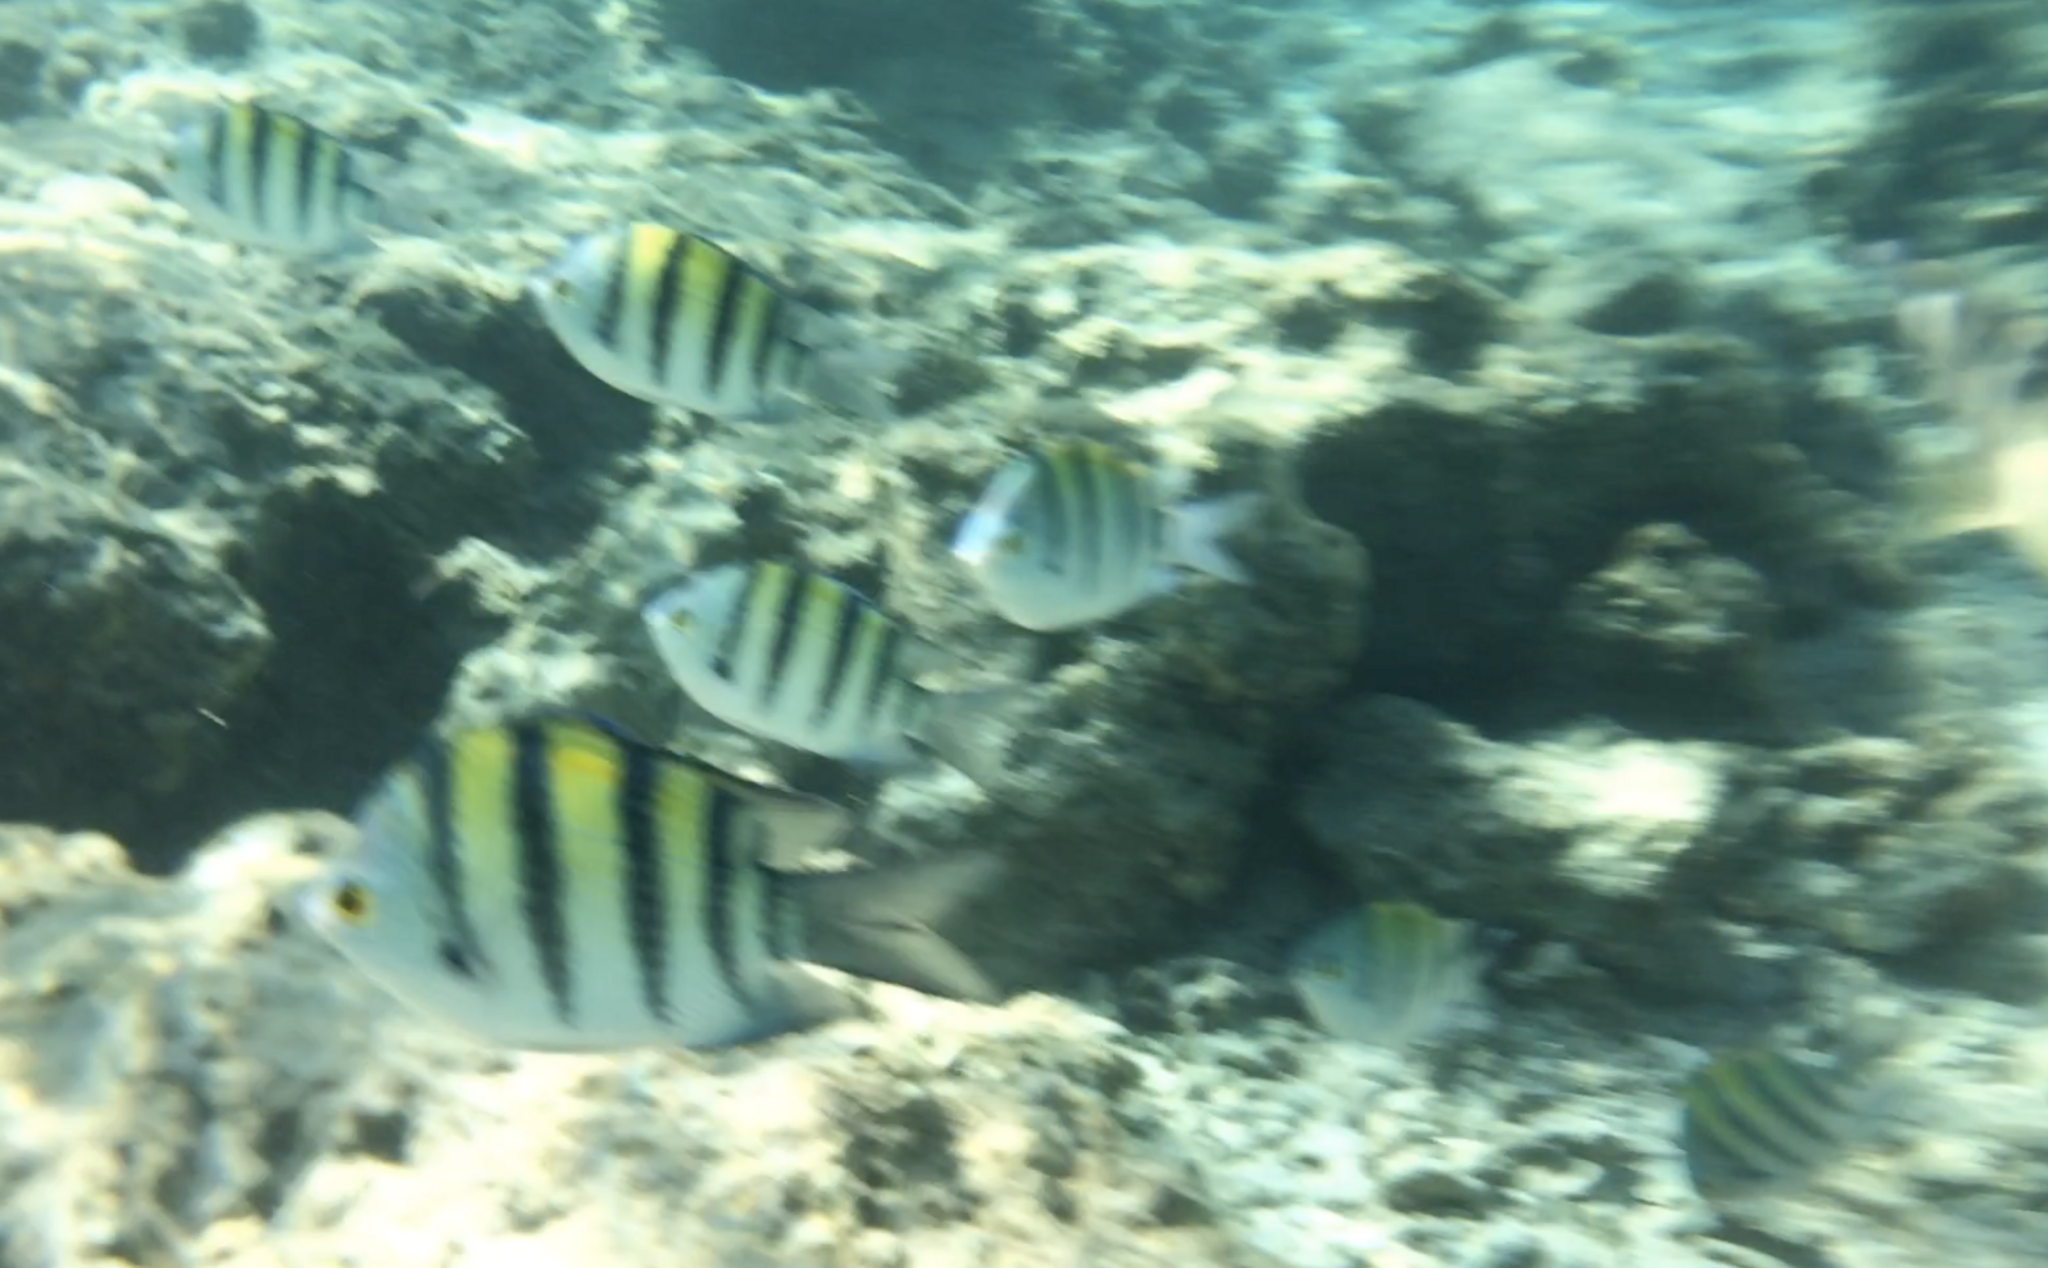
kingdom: Animalia
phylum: Chordata
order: Perciformes
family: Pomacentridae
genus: Abudefduf
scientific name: Abudefduf vaigiensis
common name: Indo-pacific sergeant
